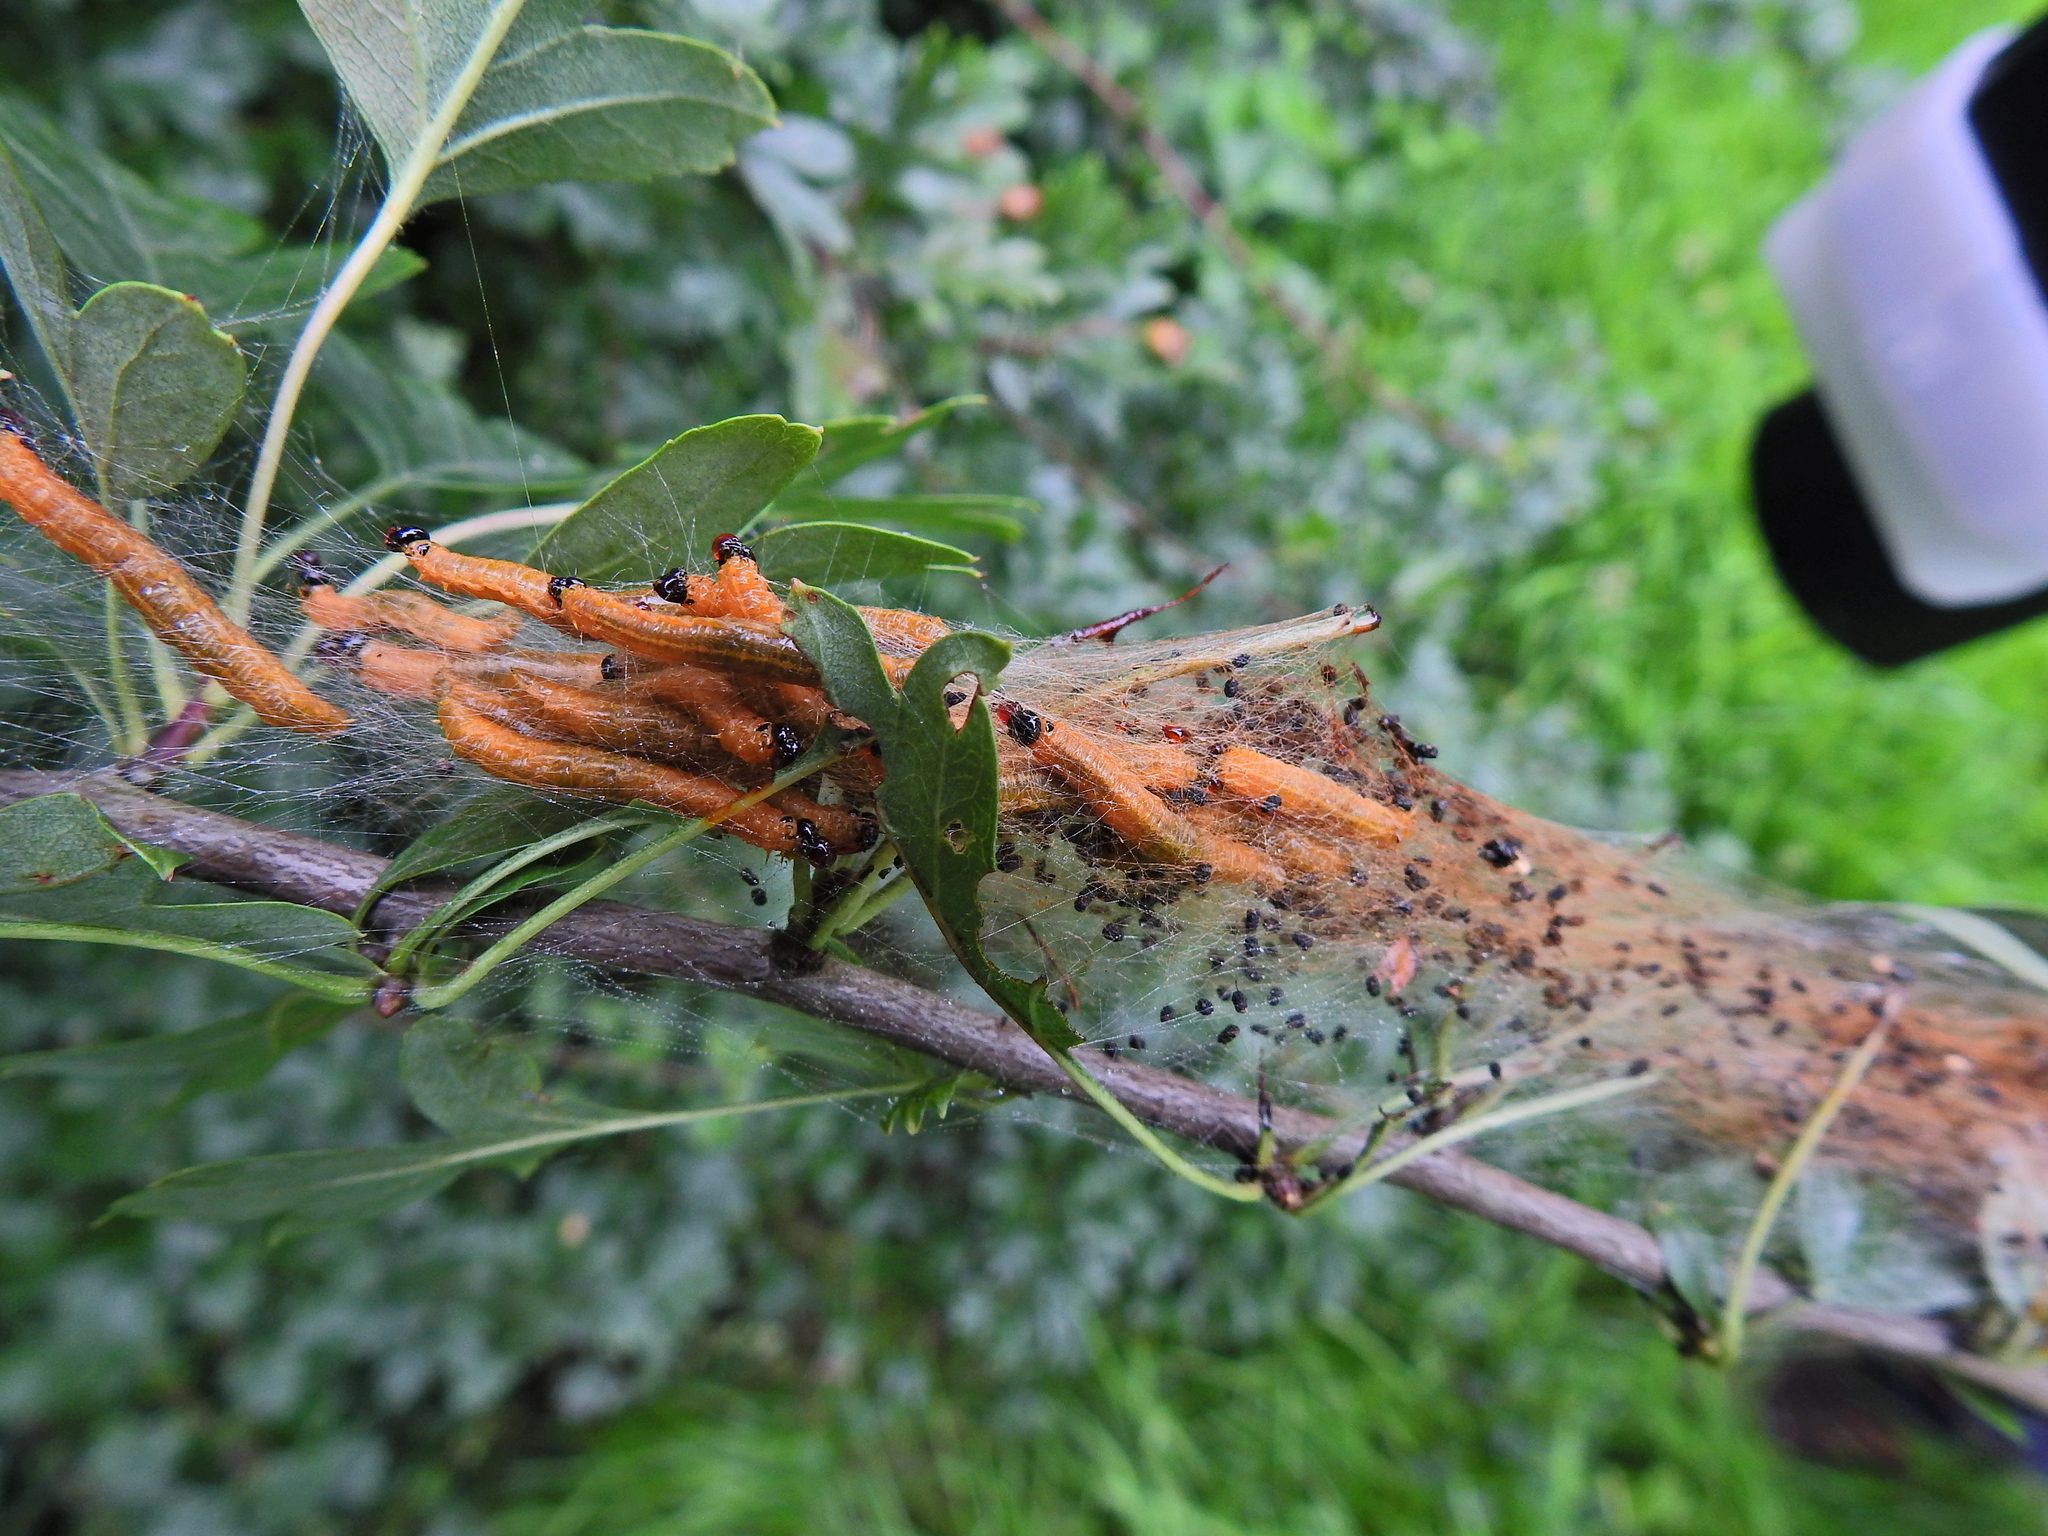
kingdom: Animalia
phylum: Arthropoda
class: Insecta
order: Hymenoptera
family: Pamphiliidae
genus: Neurotoma
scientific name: Neurotoma saltuum
